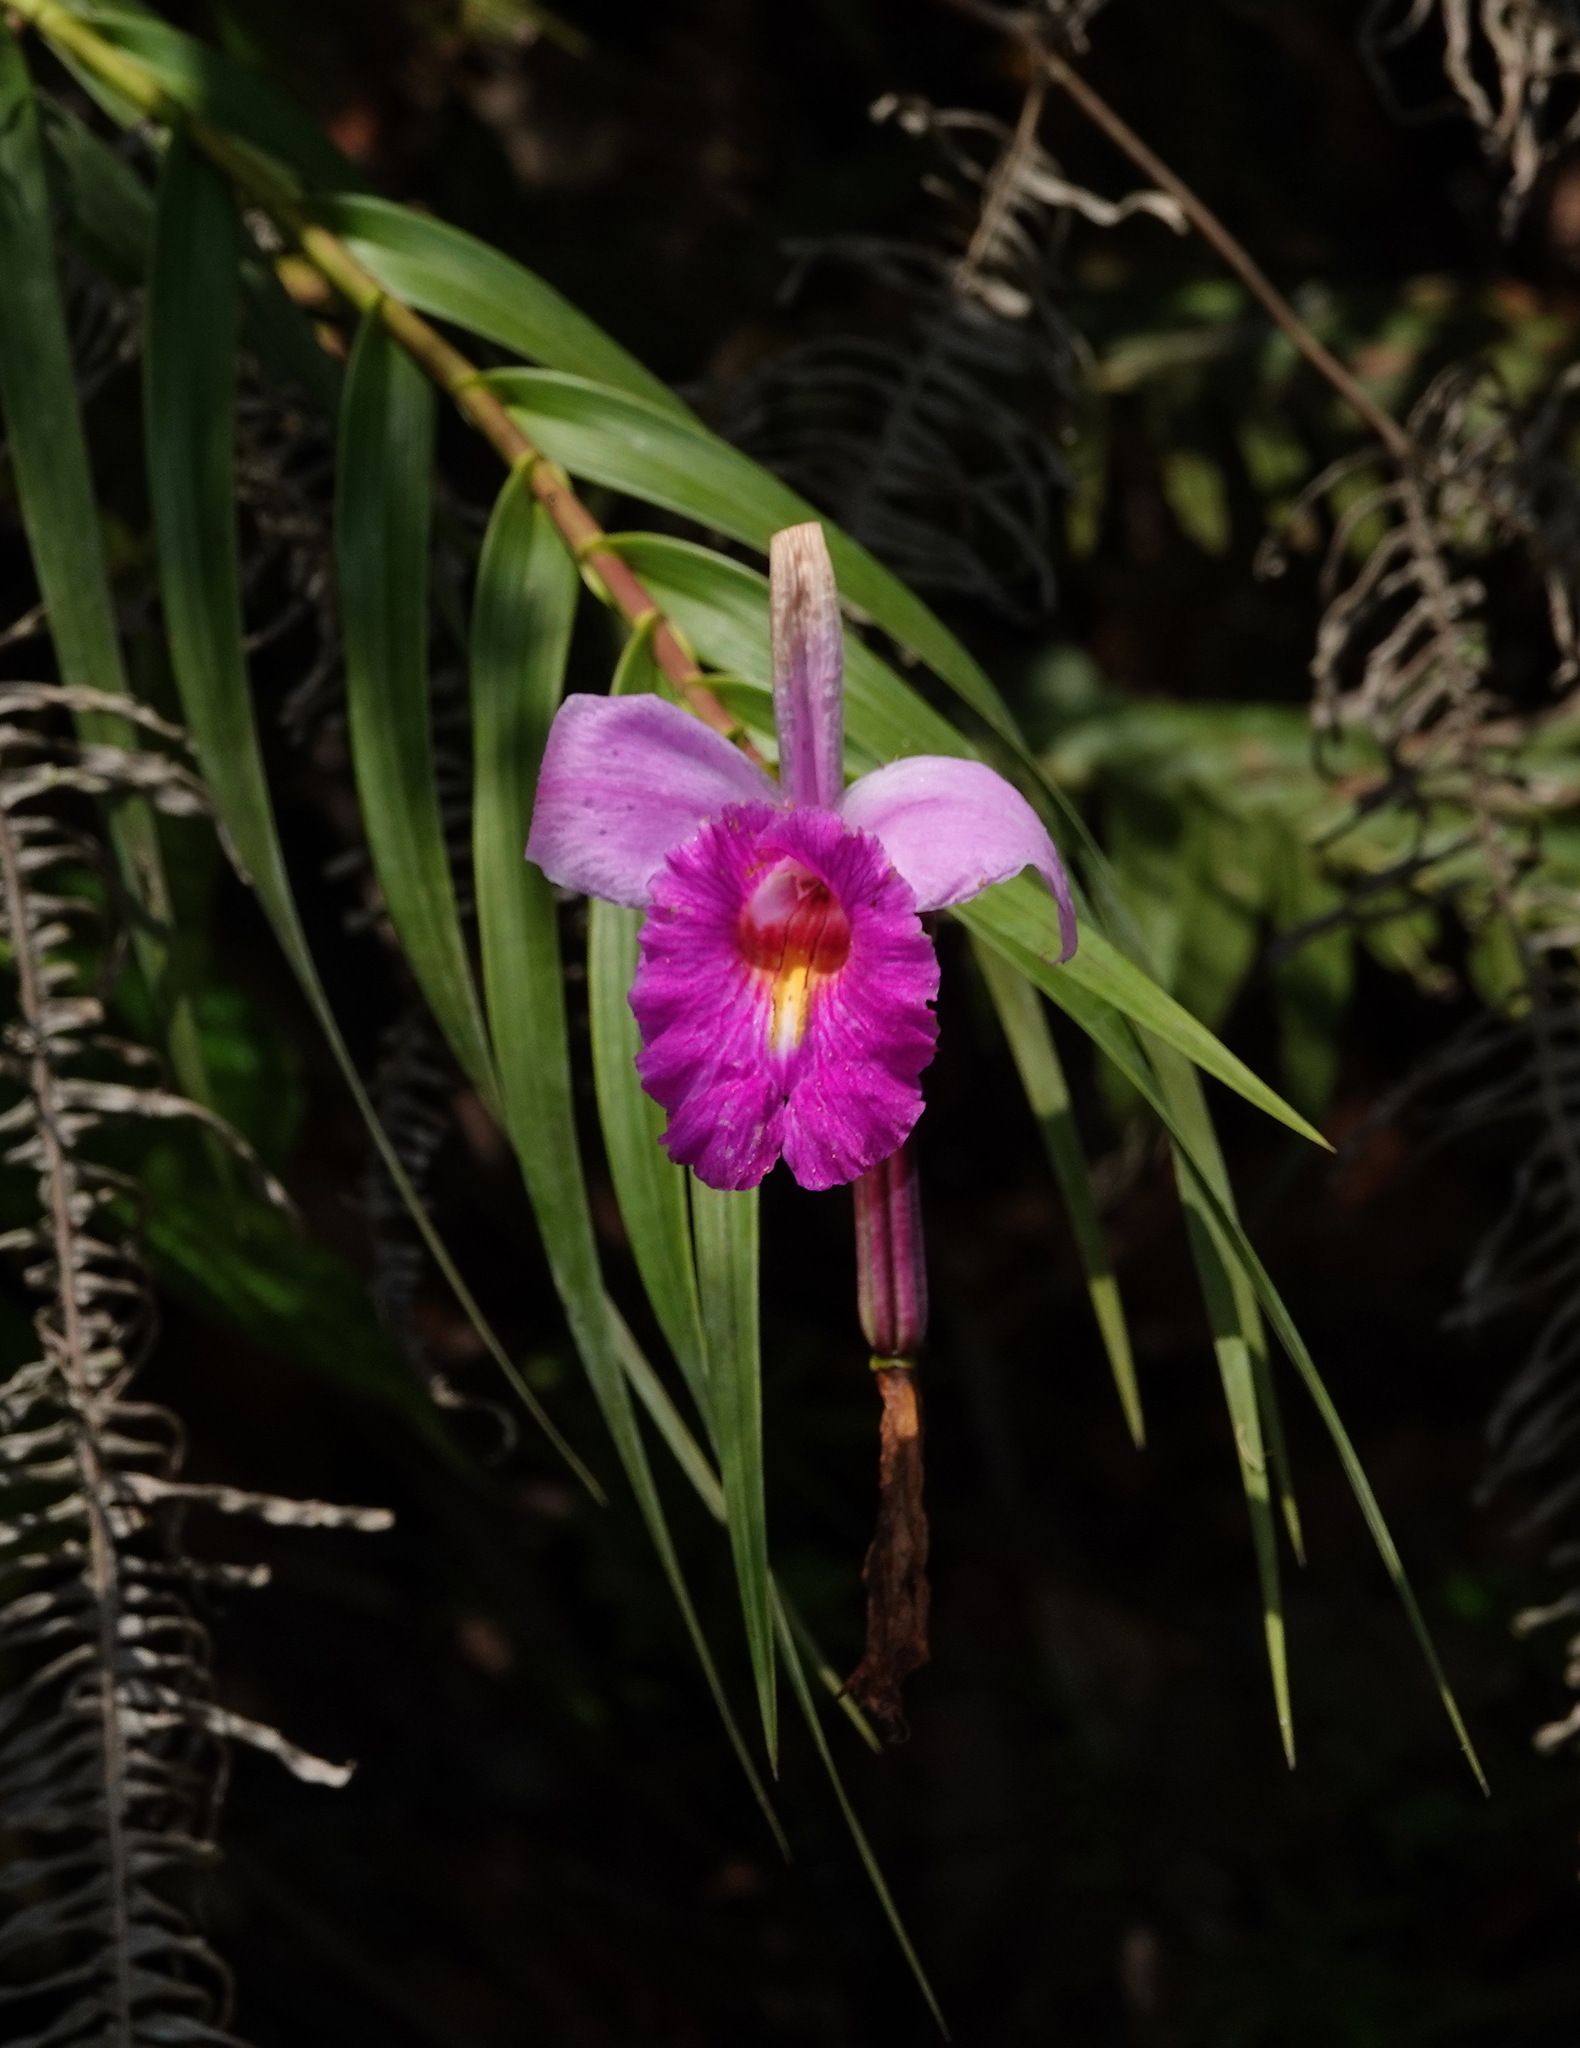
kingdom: Plantae
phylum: Tracheophyta
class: Liliopsida
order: Asparagales
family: Orchidaceae
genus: Arundina
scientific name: Arundina graminifolia
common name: Bamboo orchid
